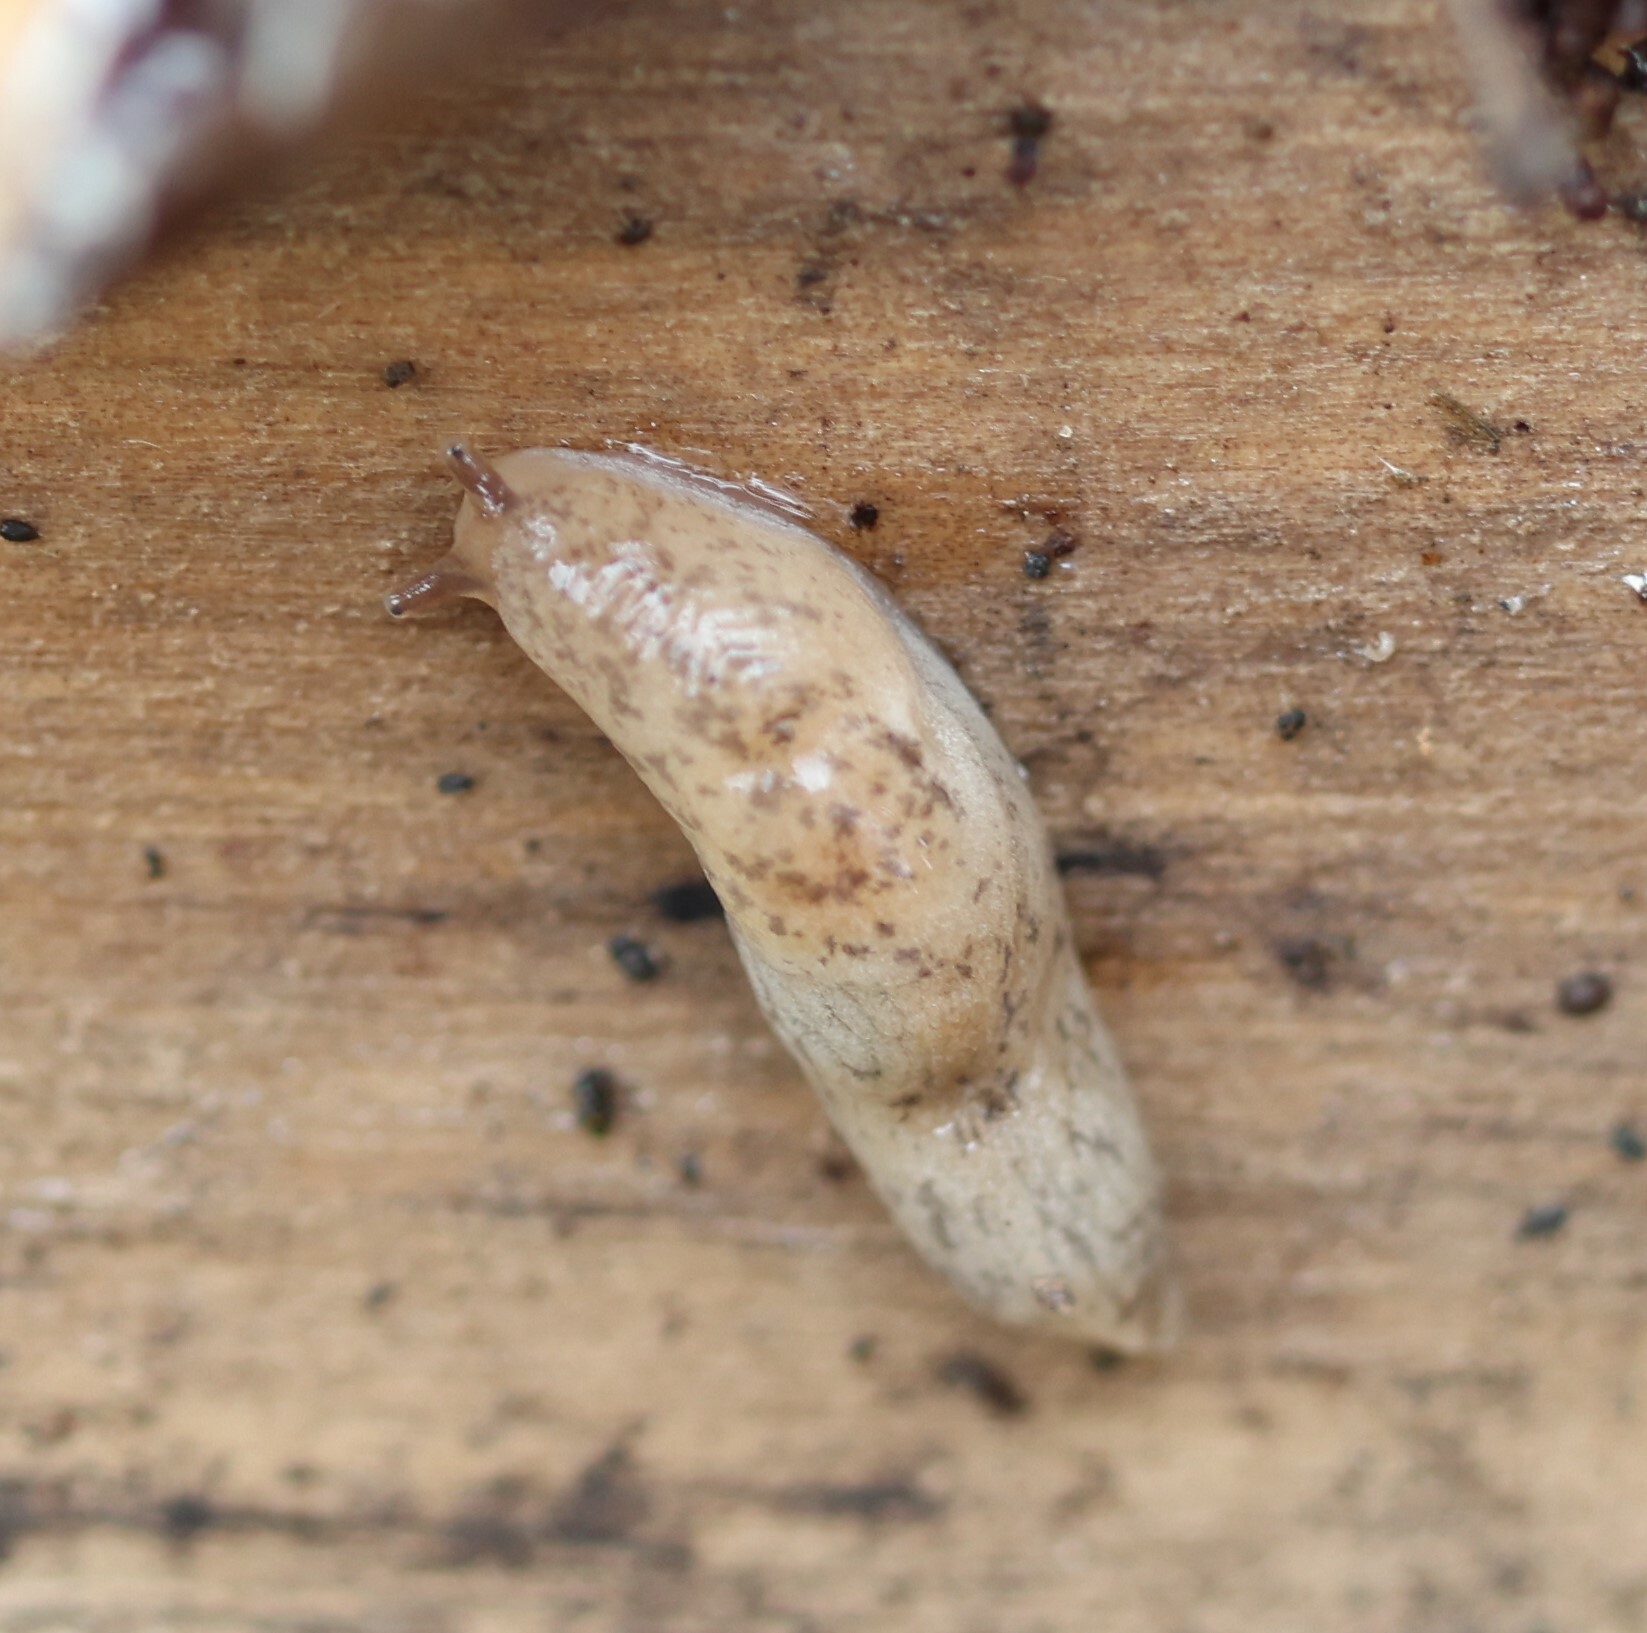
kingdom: Animalia
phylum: Mollusca
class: Gastropoda
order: Stylommatophora
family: Agriolimacidae
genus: Deroceras
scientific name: Deroceras reticulatum
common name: Gray field slug
